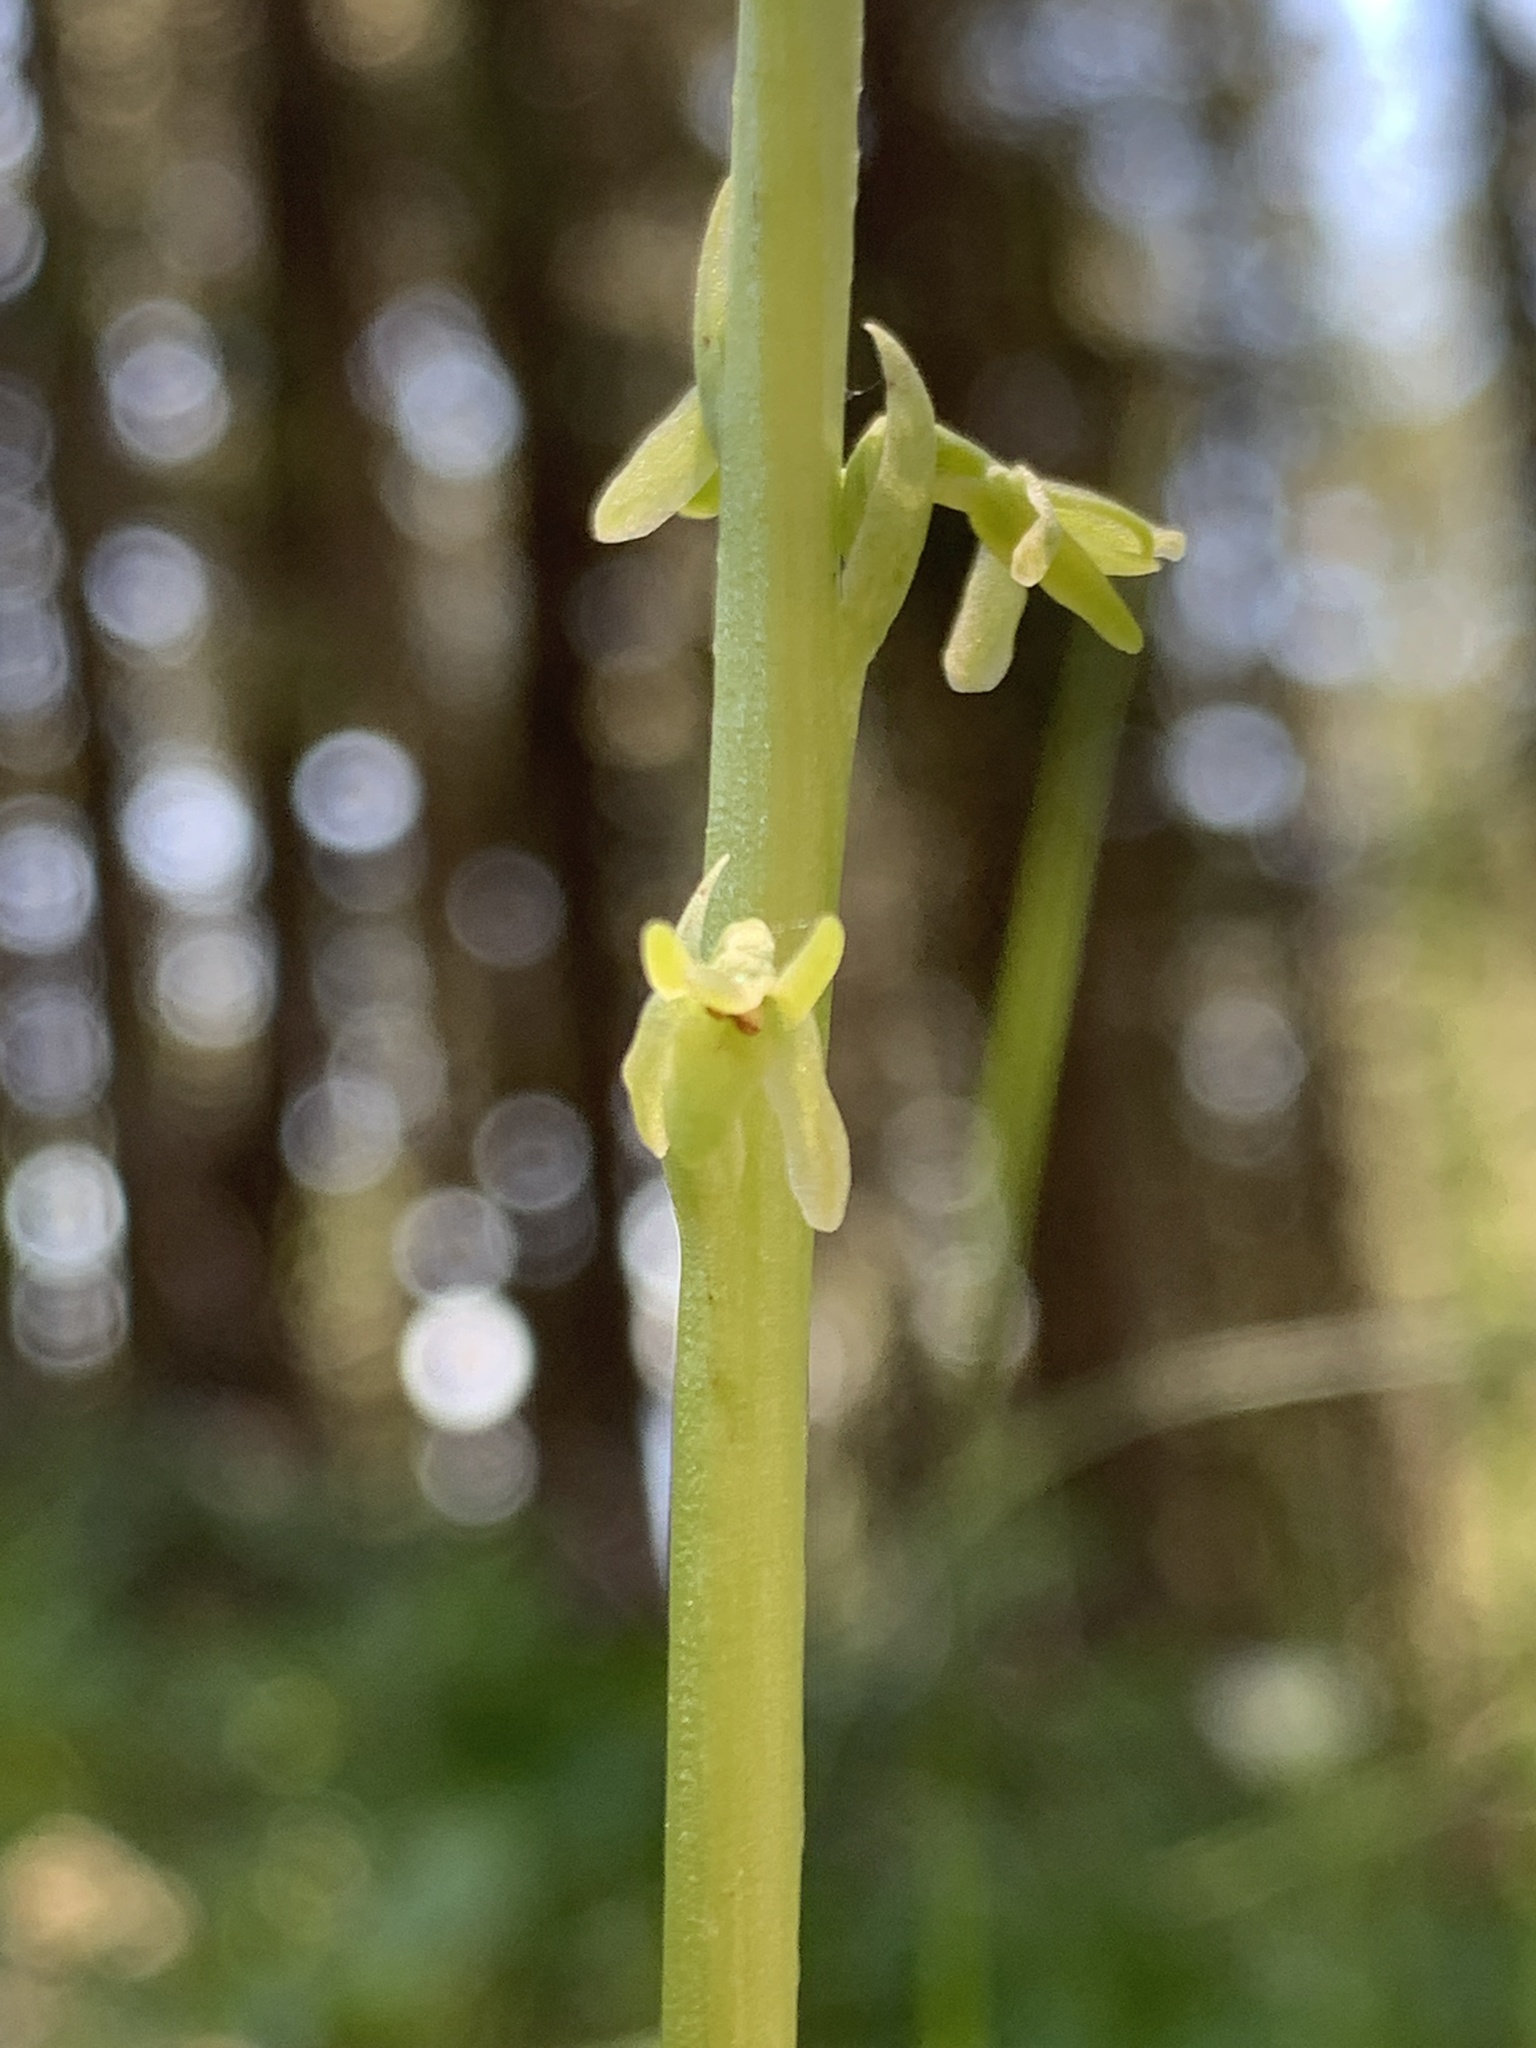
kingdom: Plantae
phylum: Tracheophyta
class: Liliopsida
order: Asparagales
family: Orchidaceae
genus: Platanthera
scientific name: Platanthera unalascensis
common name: Alaska bog orchid
